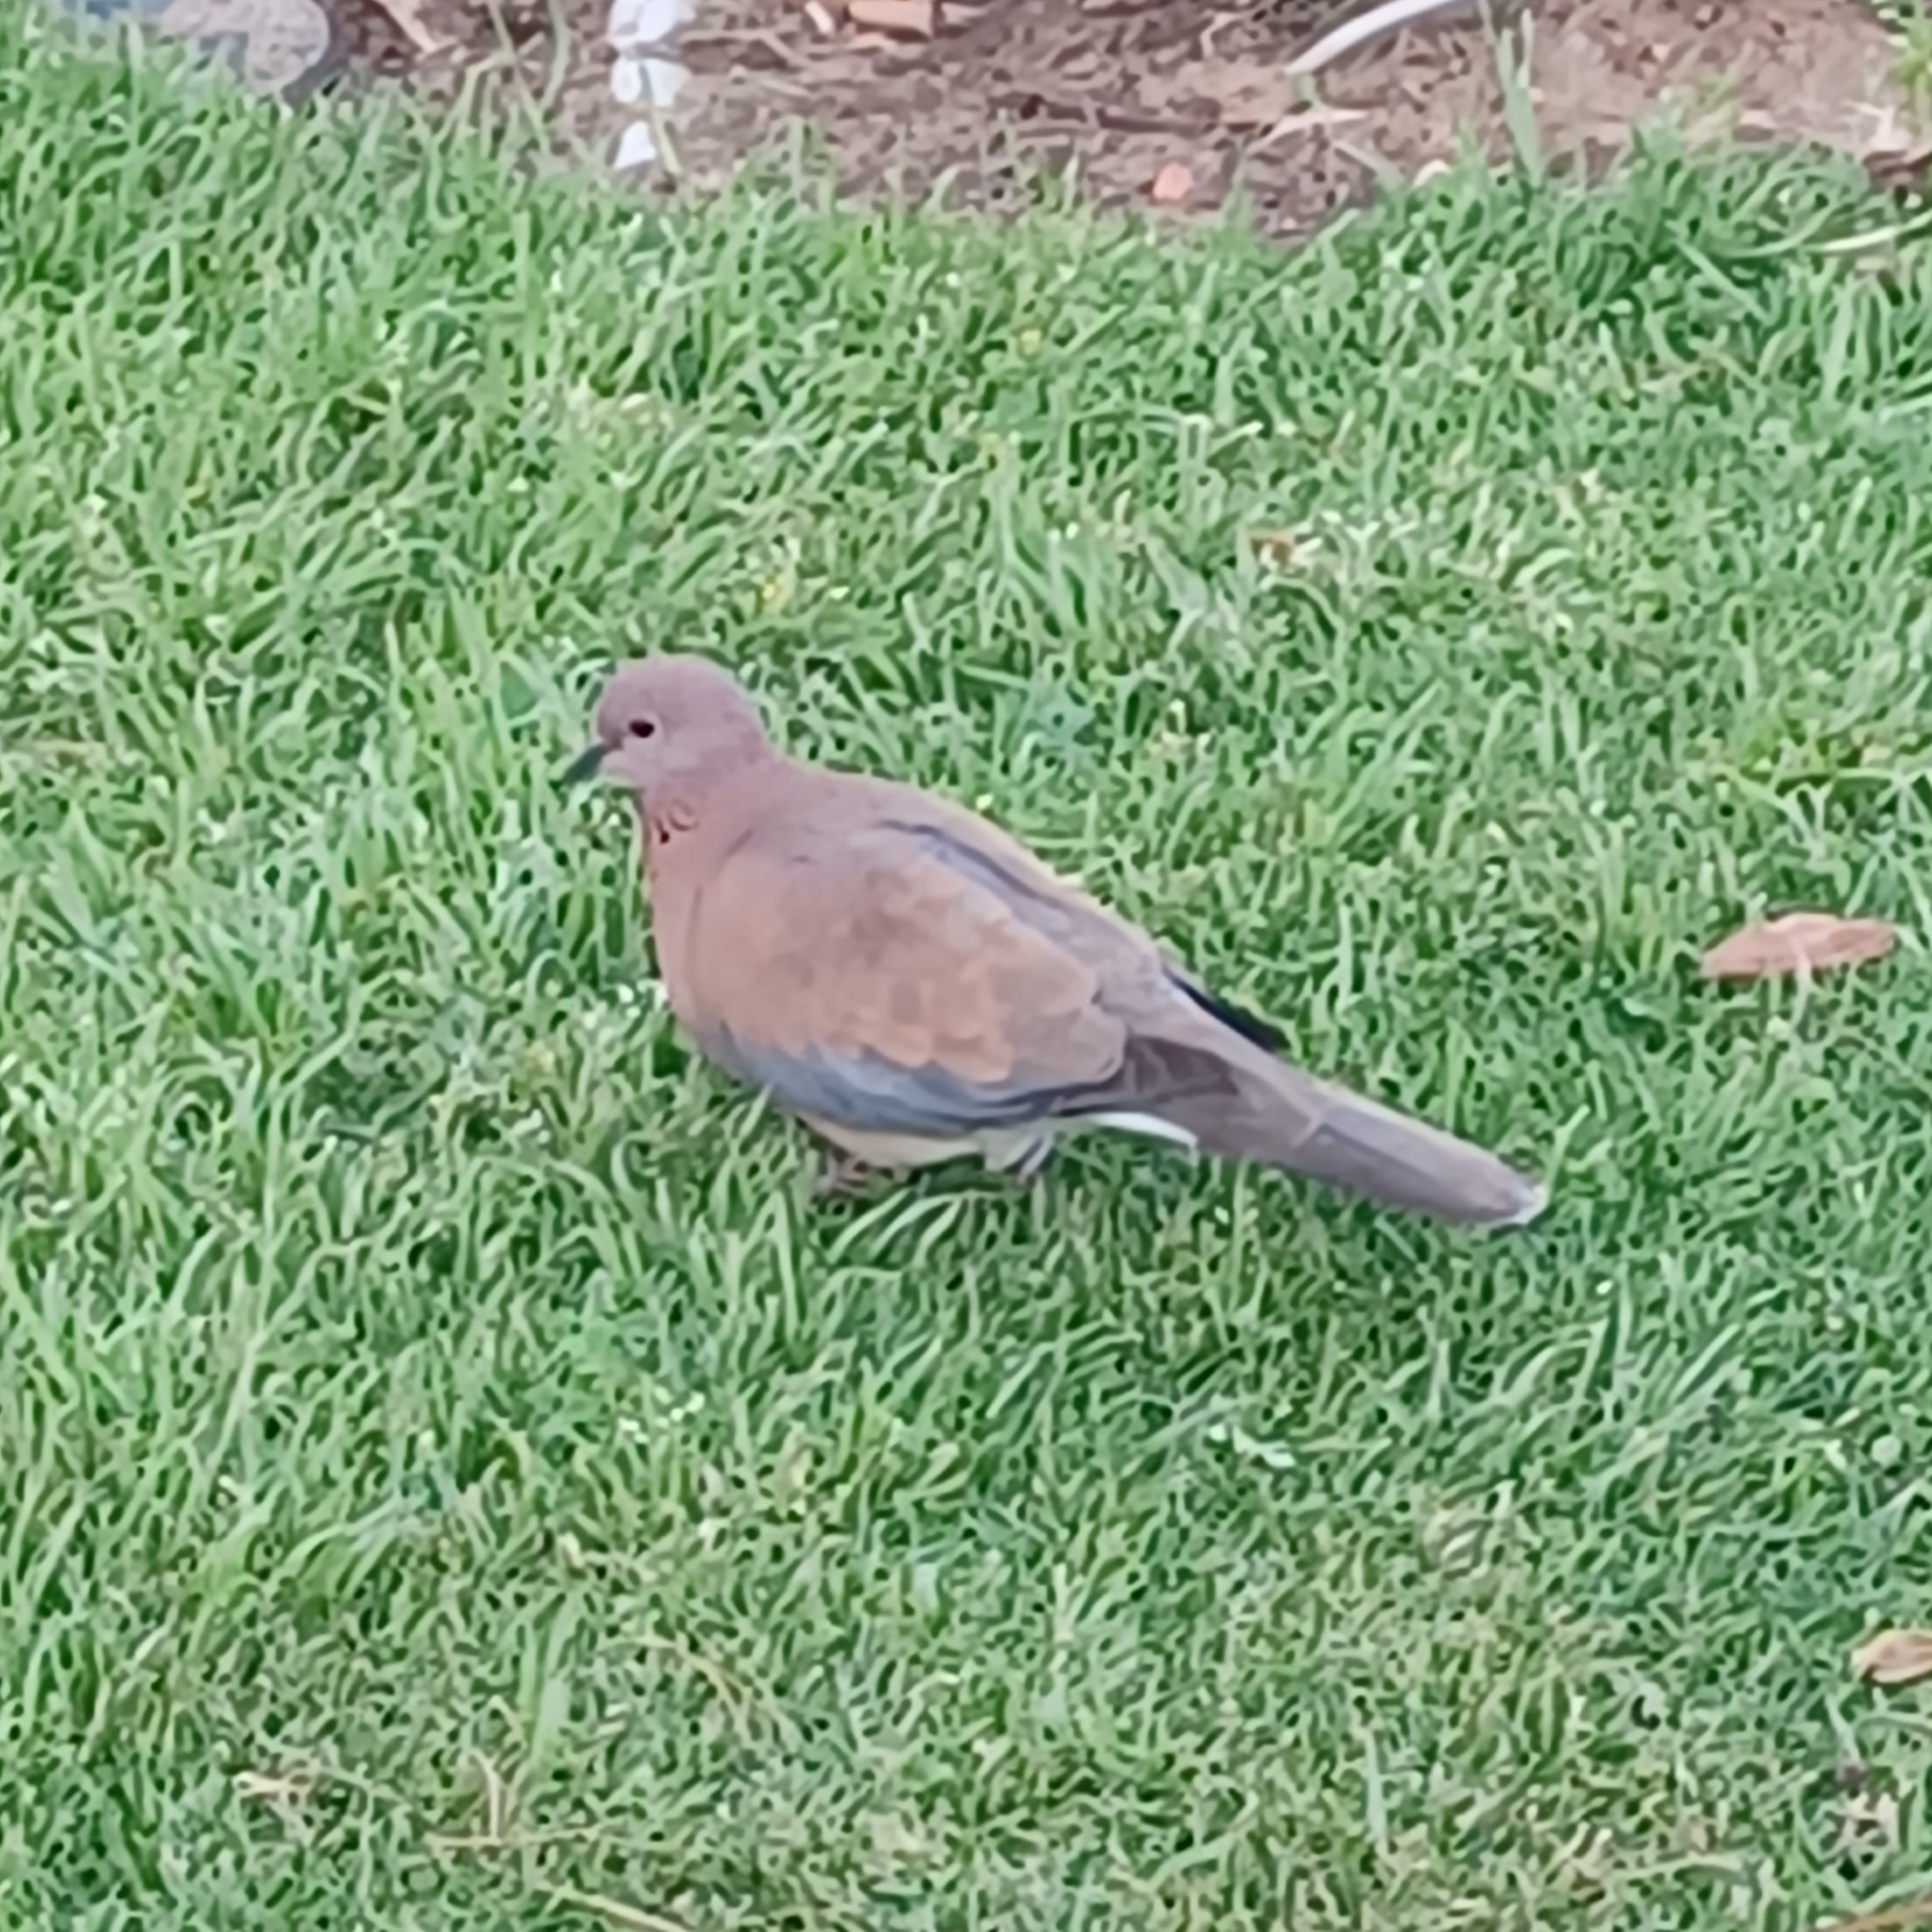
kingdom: Animalia
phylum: Chordata
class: Aves
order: Columbiformes
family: Columbidae
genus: Spilopelia
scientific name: Spilopelia senegalensis
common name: Laughing dove
